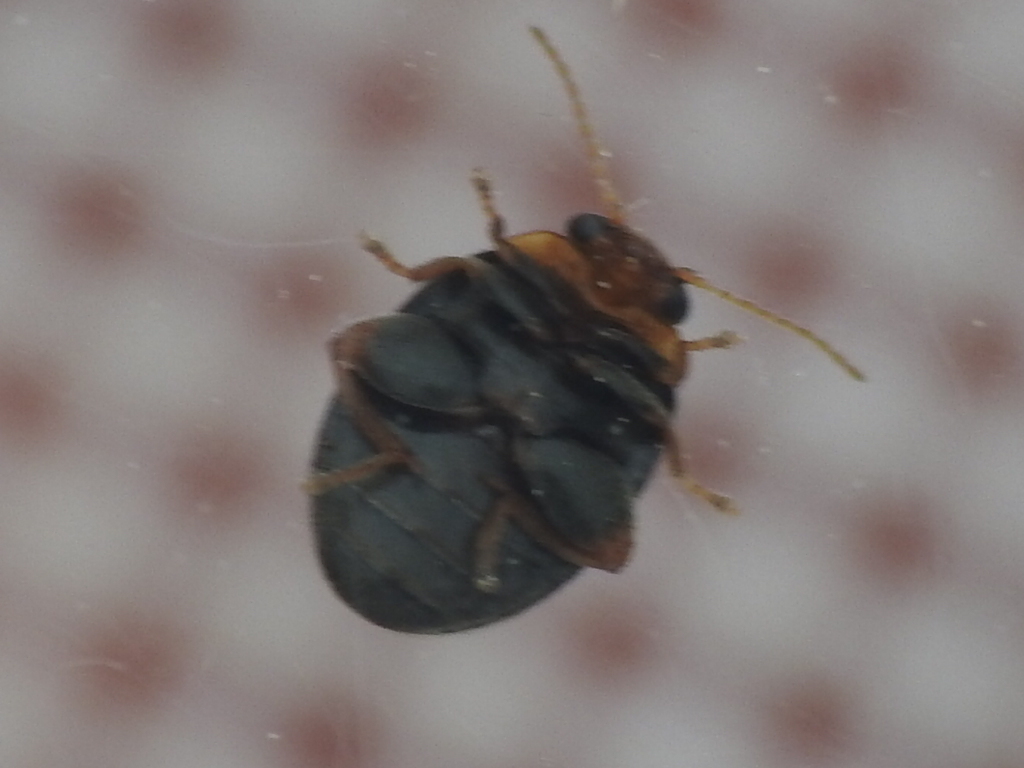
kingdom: Animalia
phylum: Arthropoda
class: Insecta
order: Coleoptera
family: Scirtidae
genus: Scirtes
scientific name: Scirtes orbiculatus
